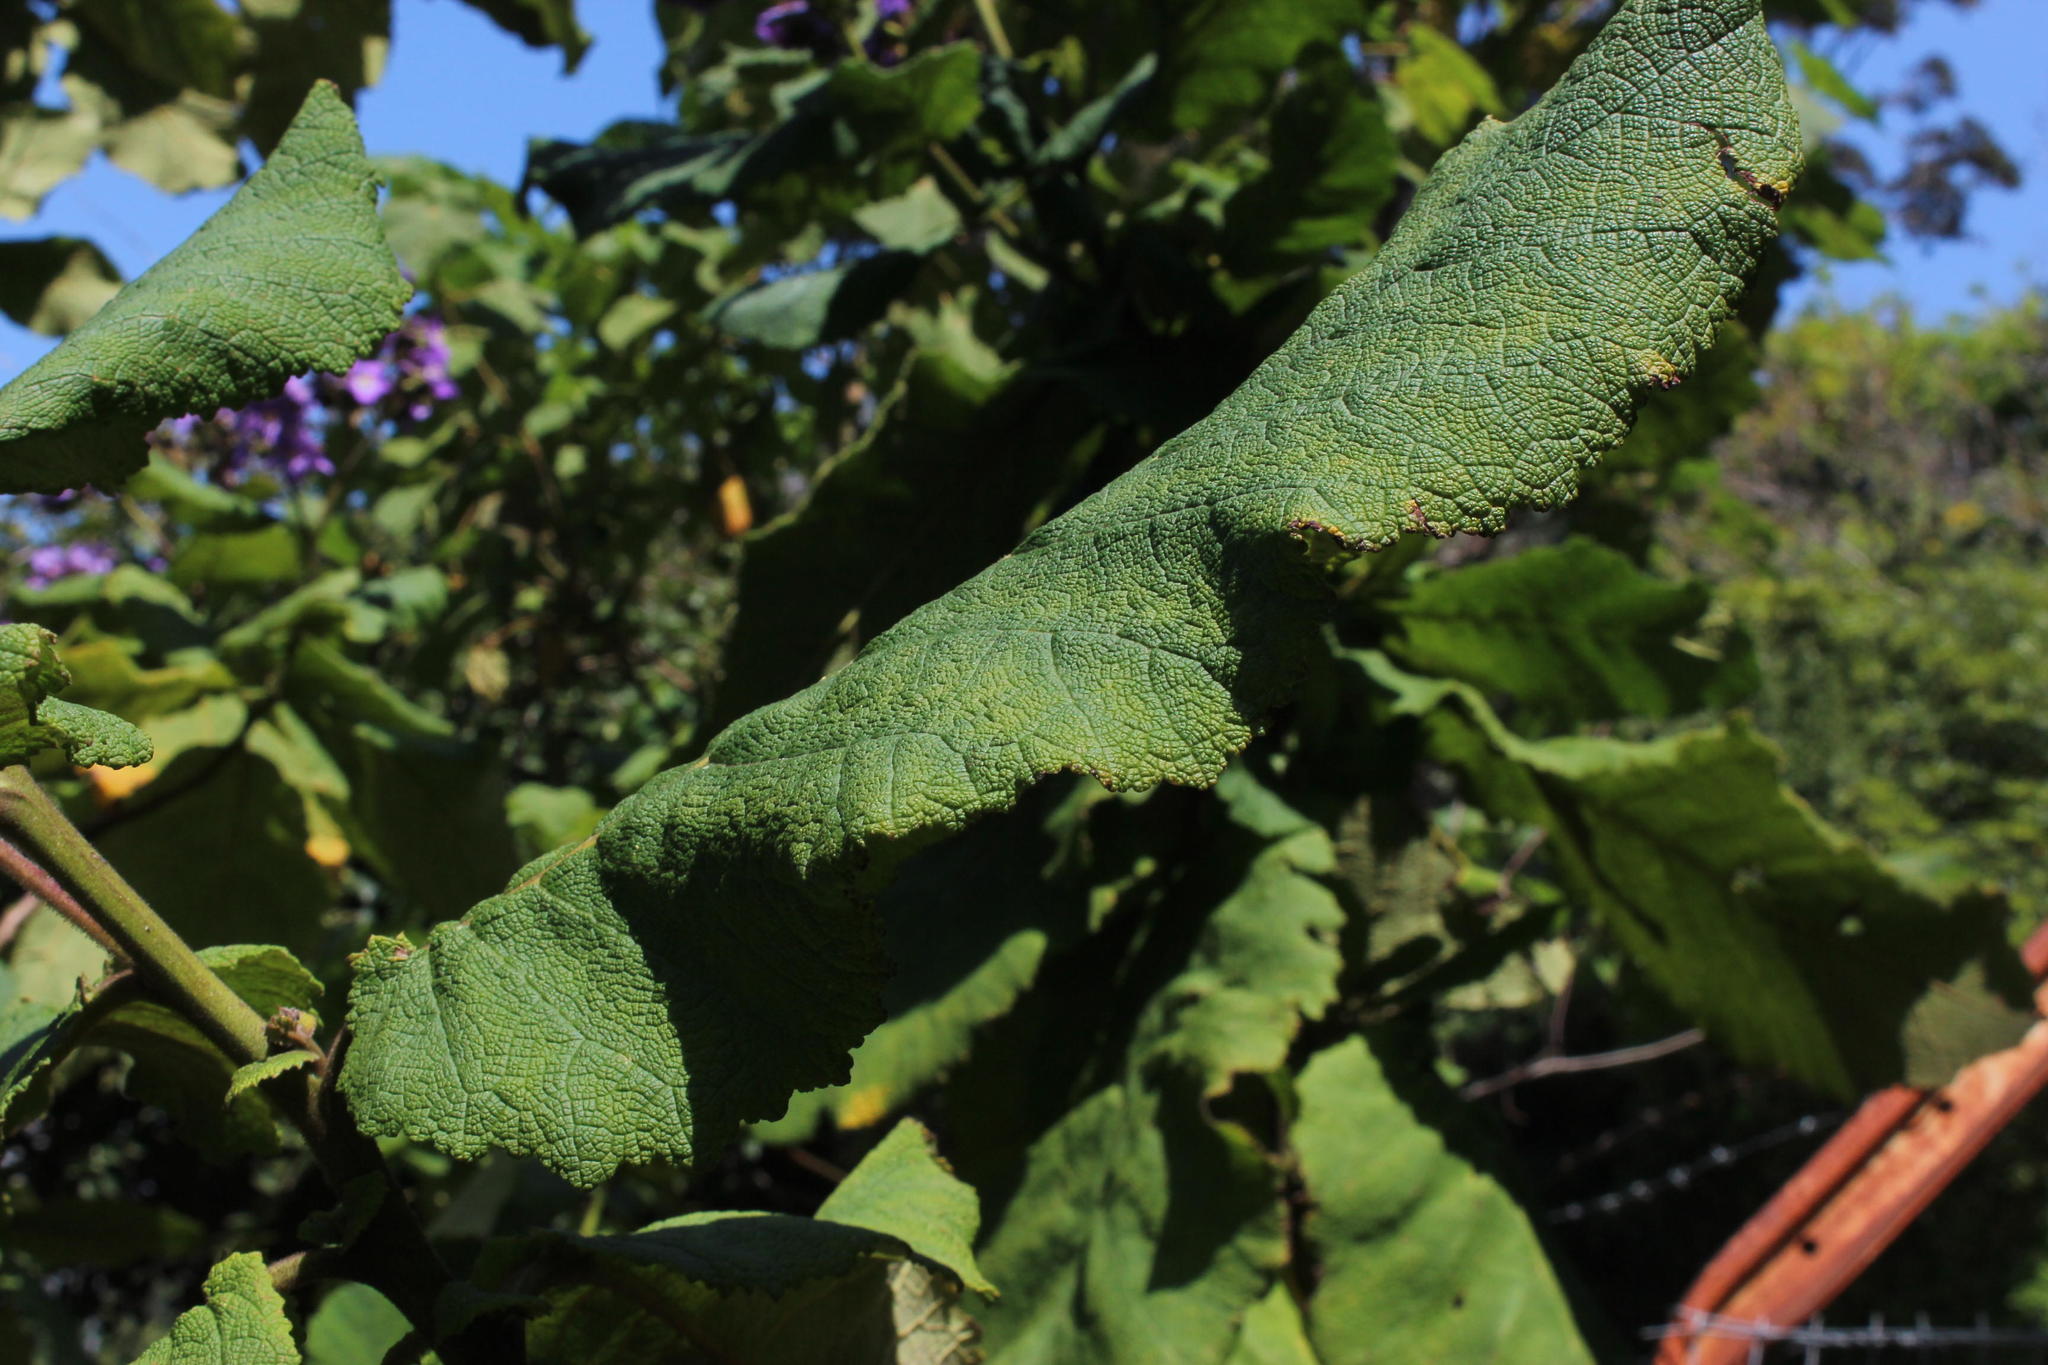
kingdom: Plantae
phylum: Tracheophyta
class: Magnoliopsida
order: Boraginales
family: Namaceae
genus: Wigandia
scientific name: Wigandia urens
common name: Caracus wigandia
